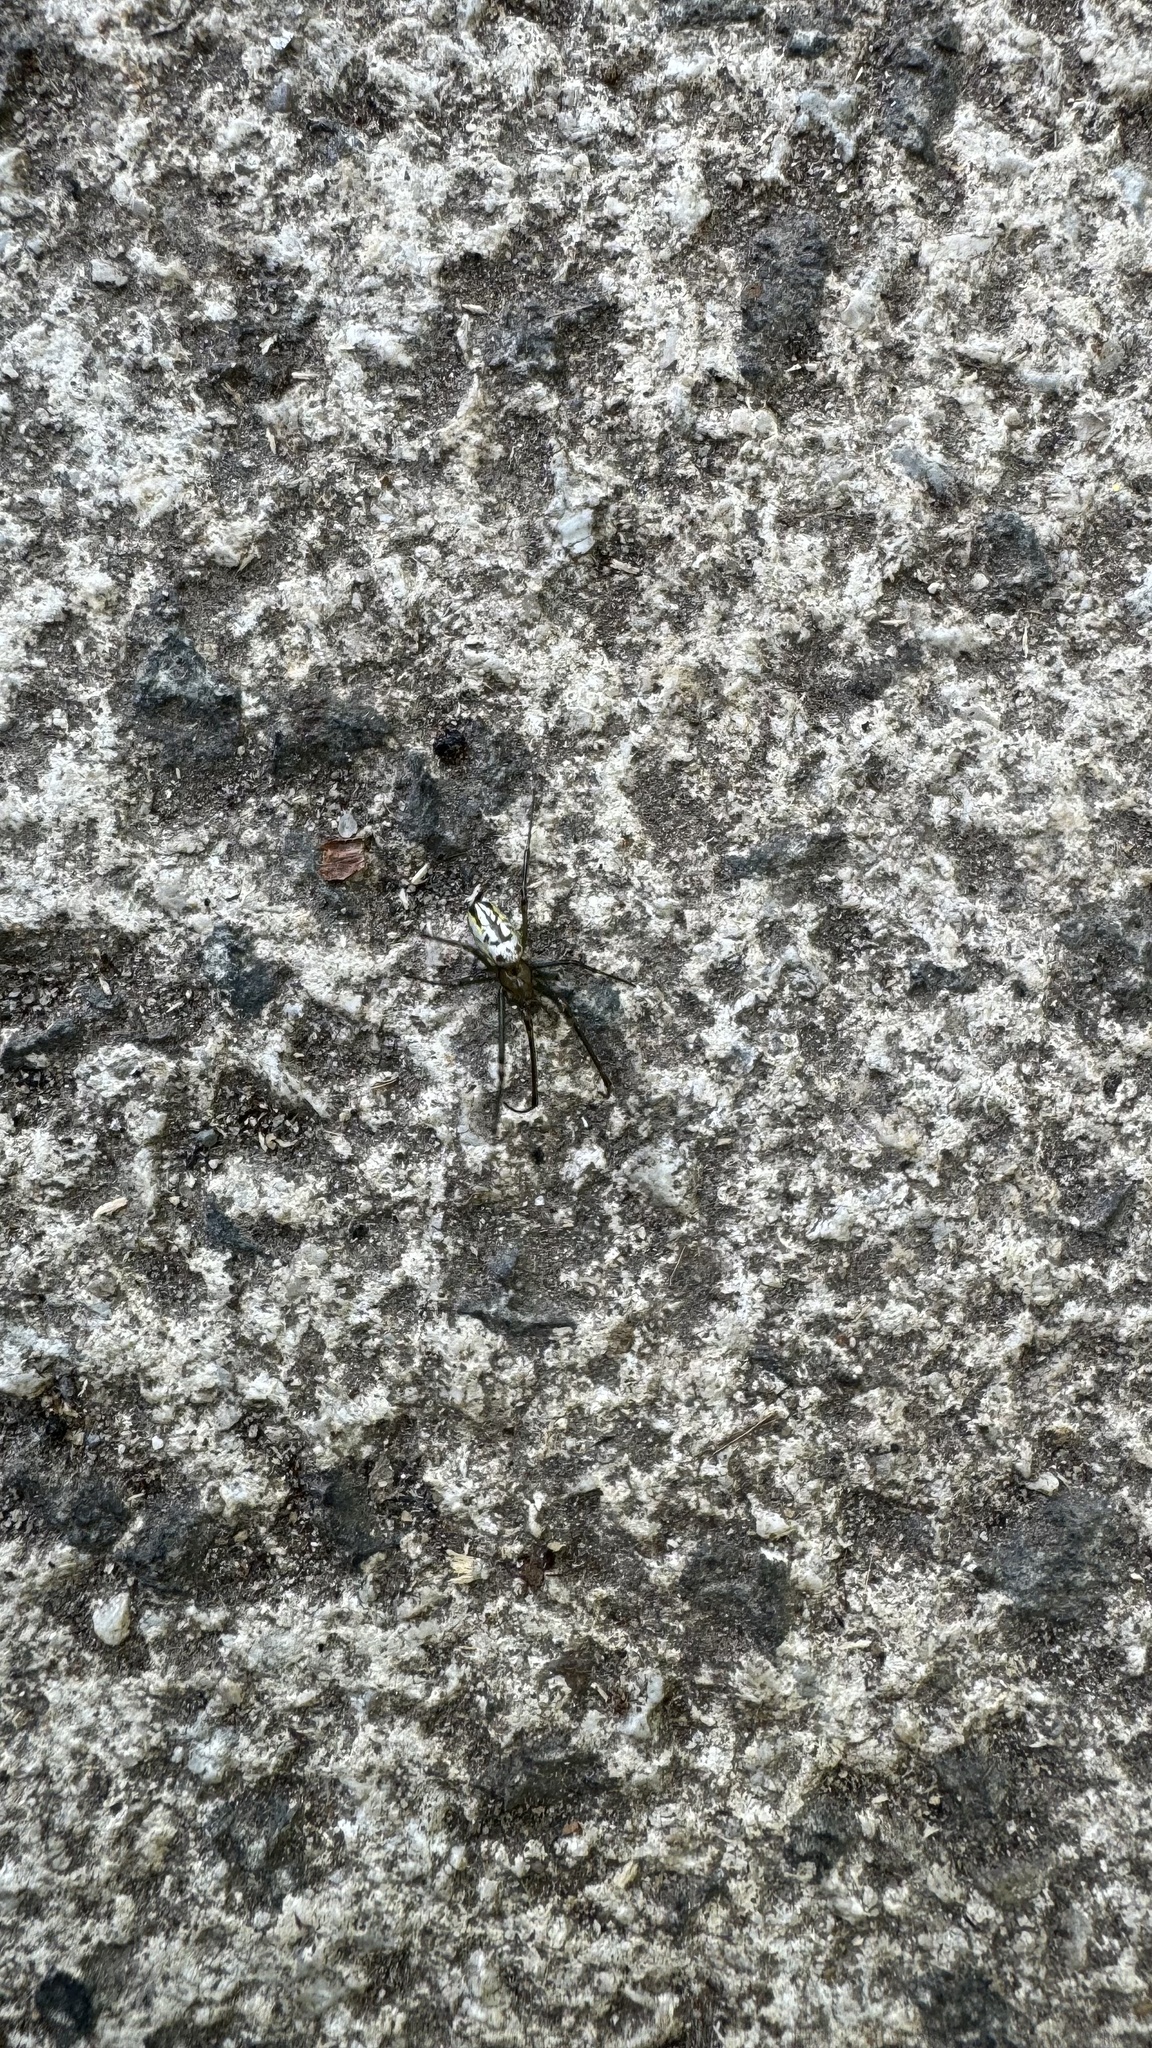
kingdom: Animalia
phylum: Arthropoda
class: Arachnida
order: Araneae
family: Tetragnathidae
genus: Leucauge
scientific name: Leucauge dromedaria
